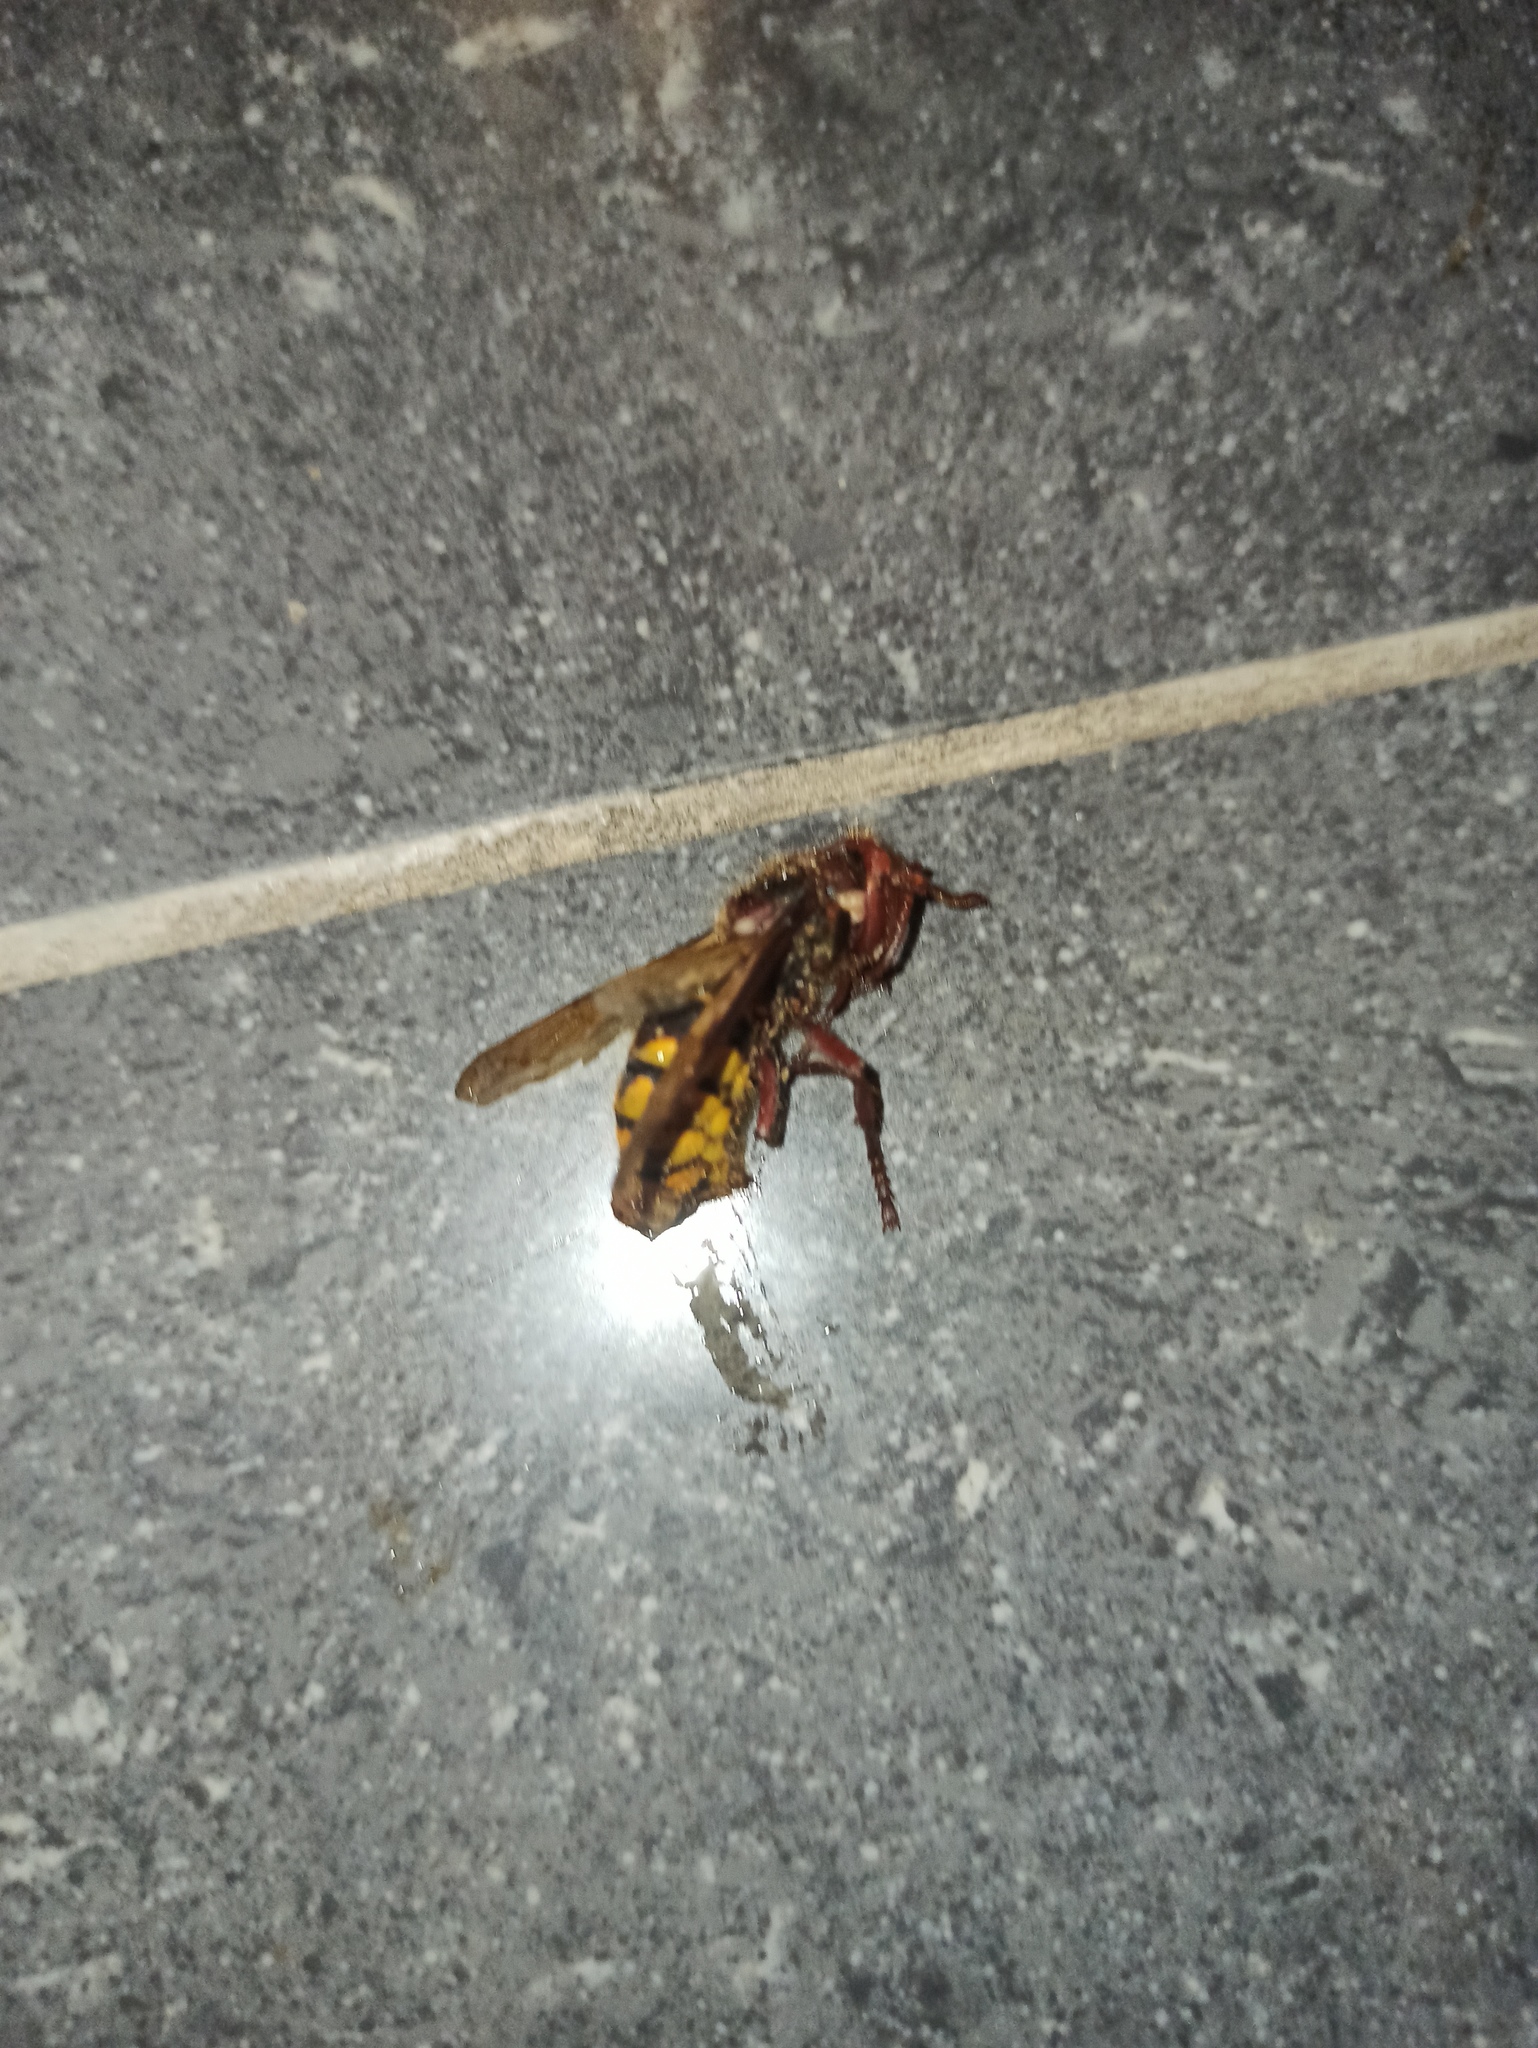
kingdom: Animalia
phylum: Arthropoda
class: Insecta
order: Hymenoptera
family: Vespidae
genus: Vespa
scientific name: Vespa crabro
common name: Hornet
